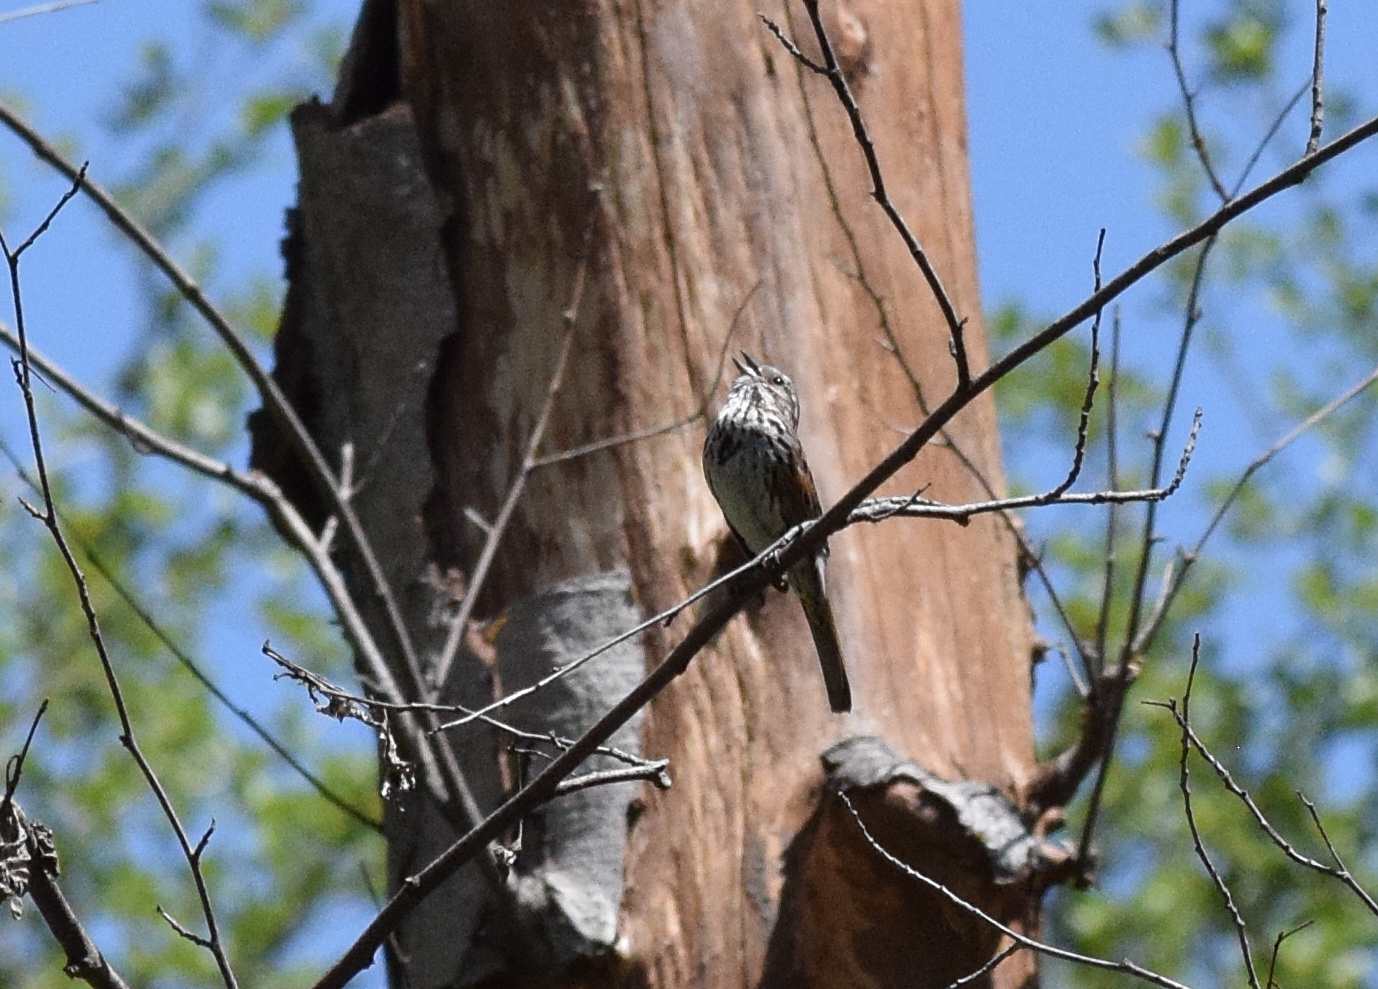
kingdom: Animalia
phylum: Chordata
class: Aves
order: Passeriformes
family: Passerellidae
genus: Melospiza
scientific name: Melospiza melodia
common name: Song sparrow
